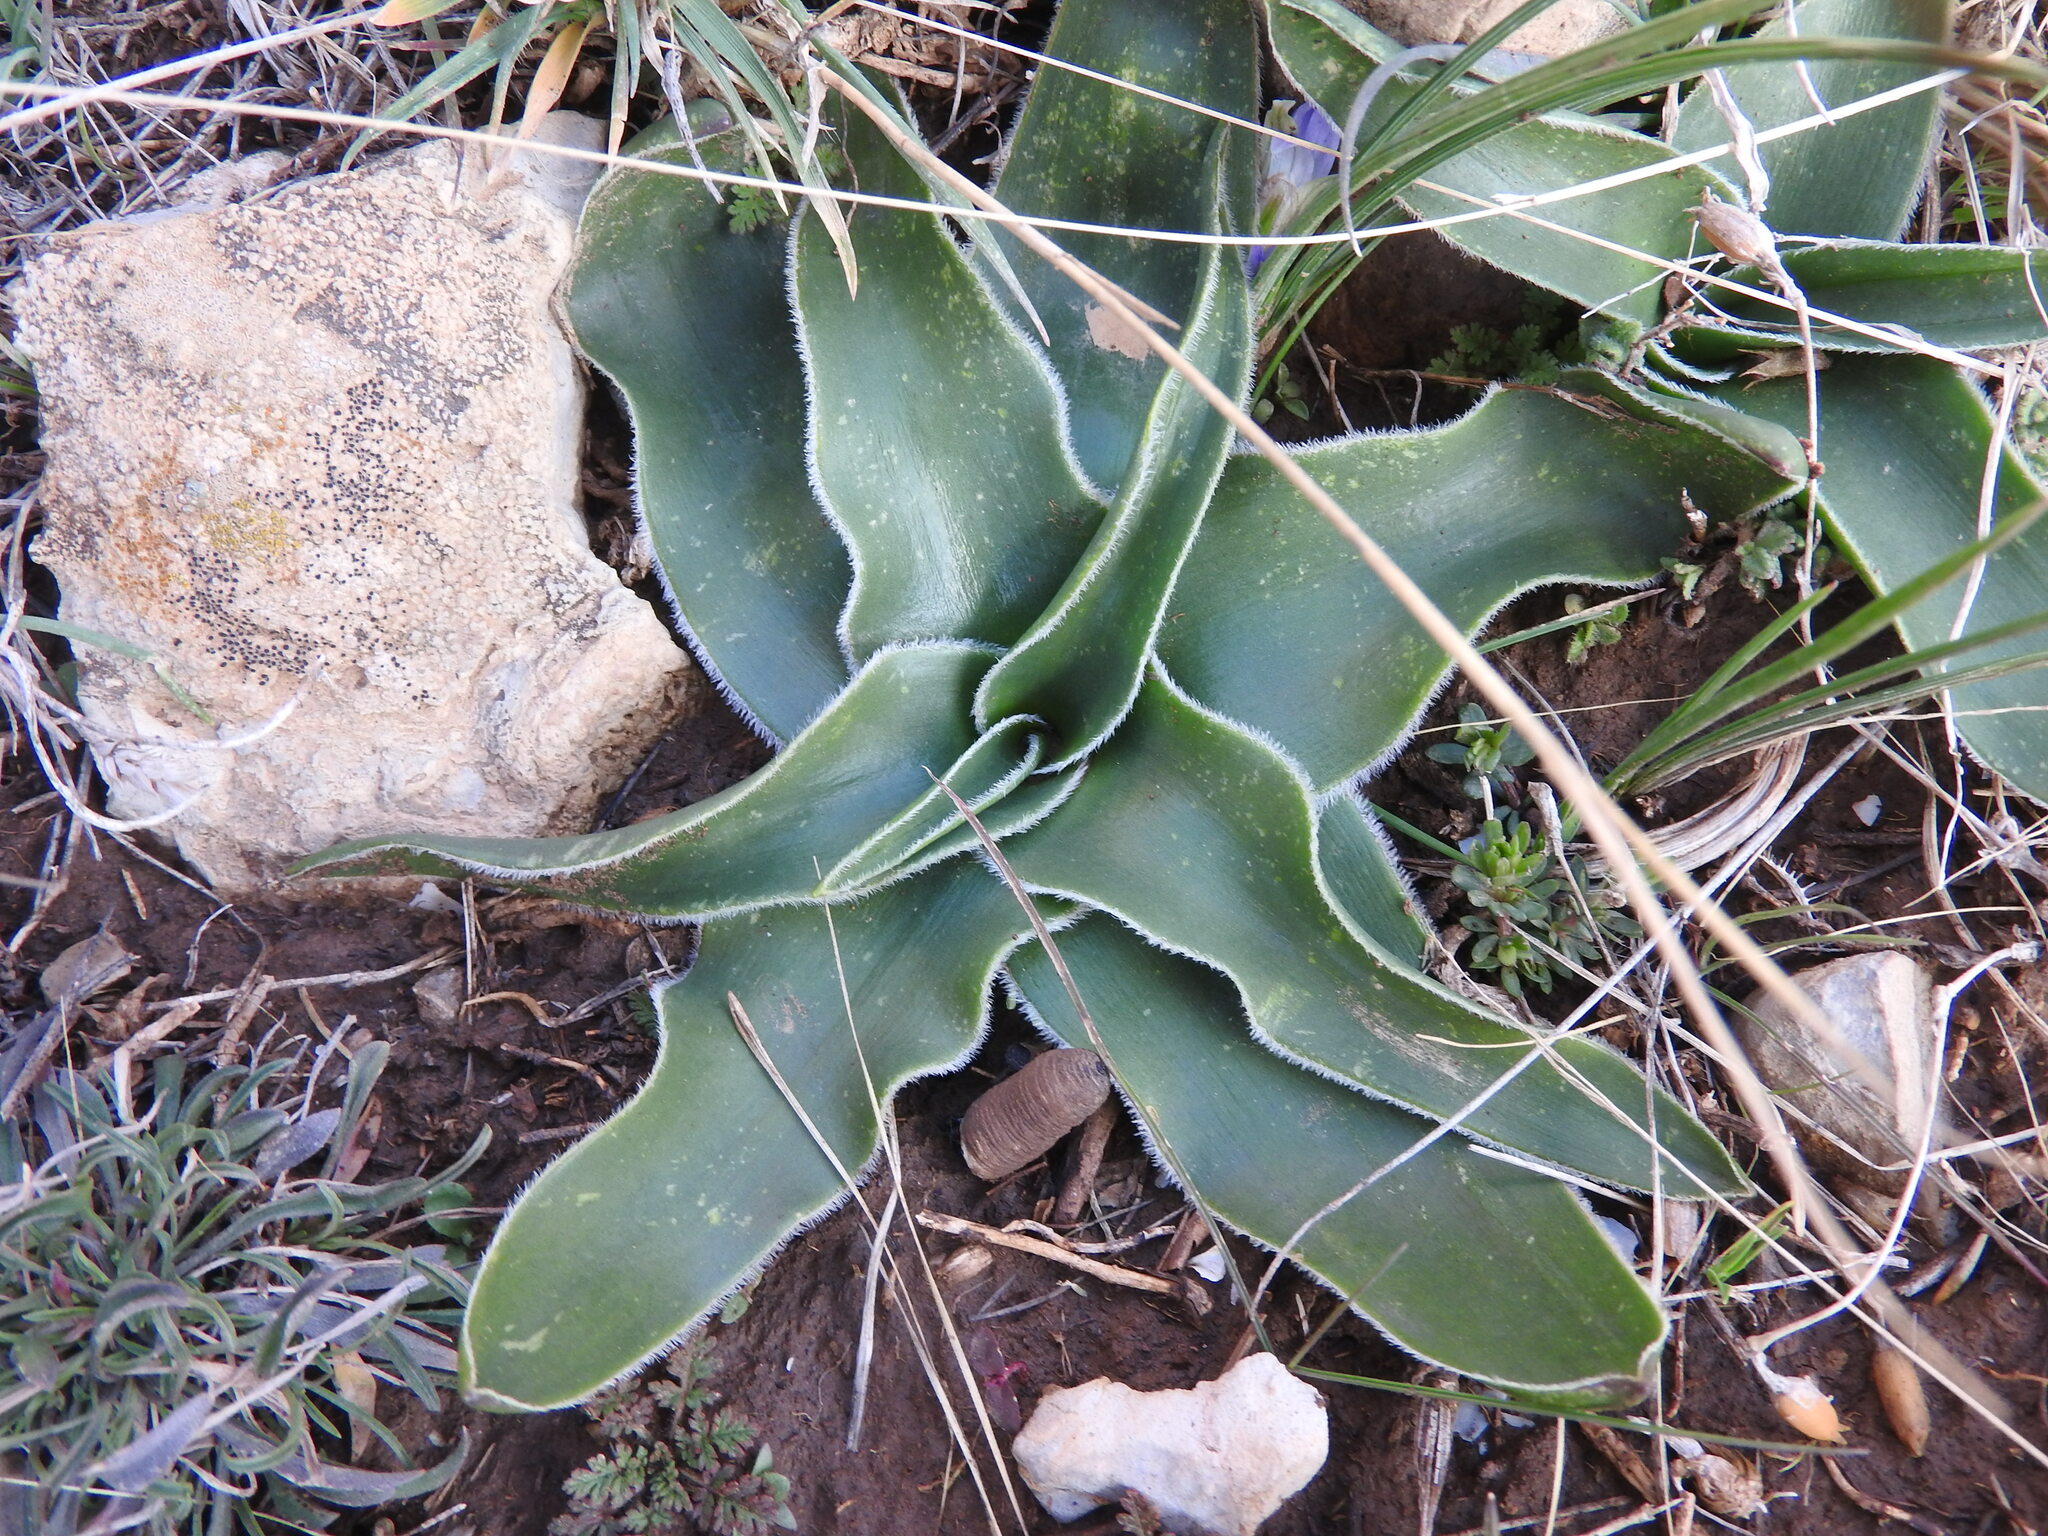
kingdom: Plantae
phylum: Tracheophyta
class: Liliopsida
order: Asparagales
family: Asparagaceae
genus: Scilla
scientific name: Scilla peruviana
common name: Portuguese squill
